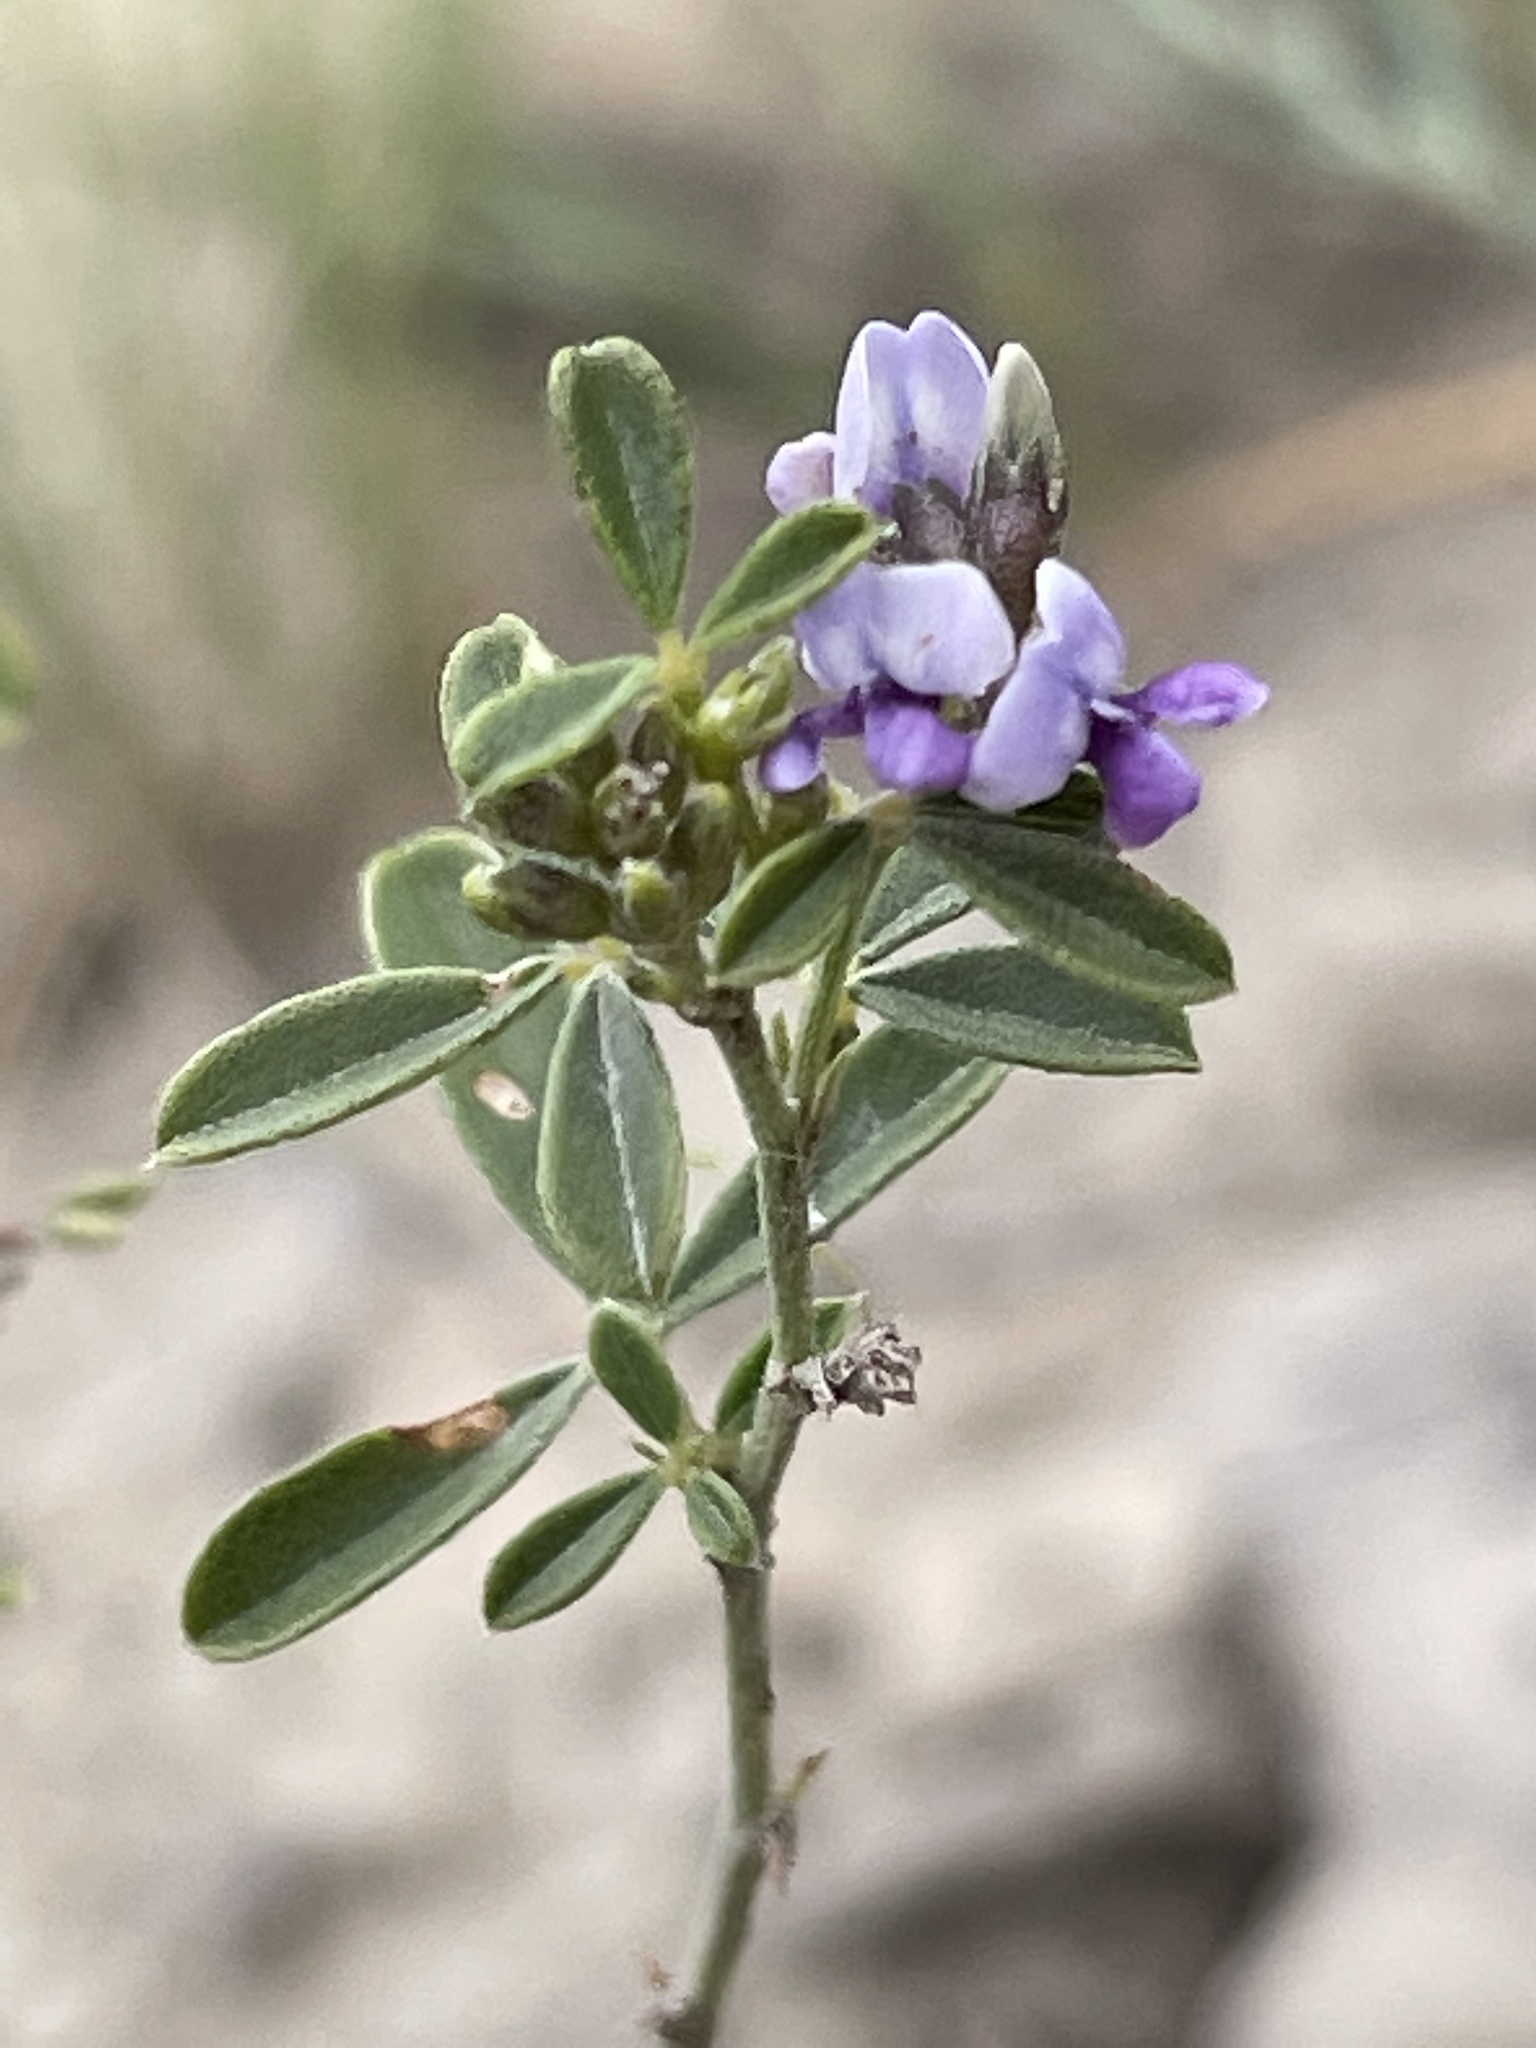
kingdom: Plantae
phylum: Tracheophyta
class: Magnoliopsida
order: Fabales
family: Fabaceae
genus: Pediomelum
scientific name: Pediomelum tenuiflorum
